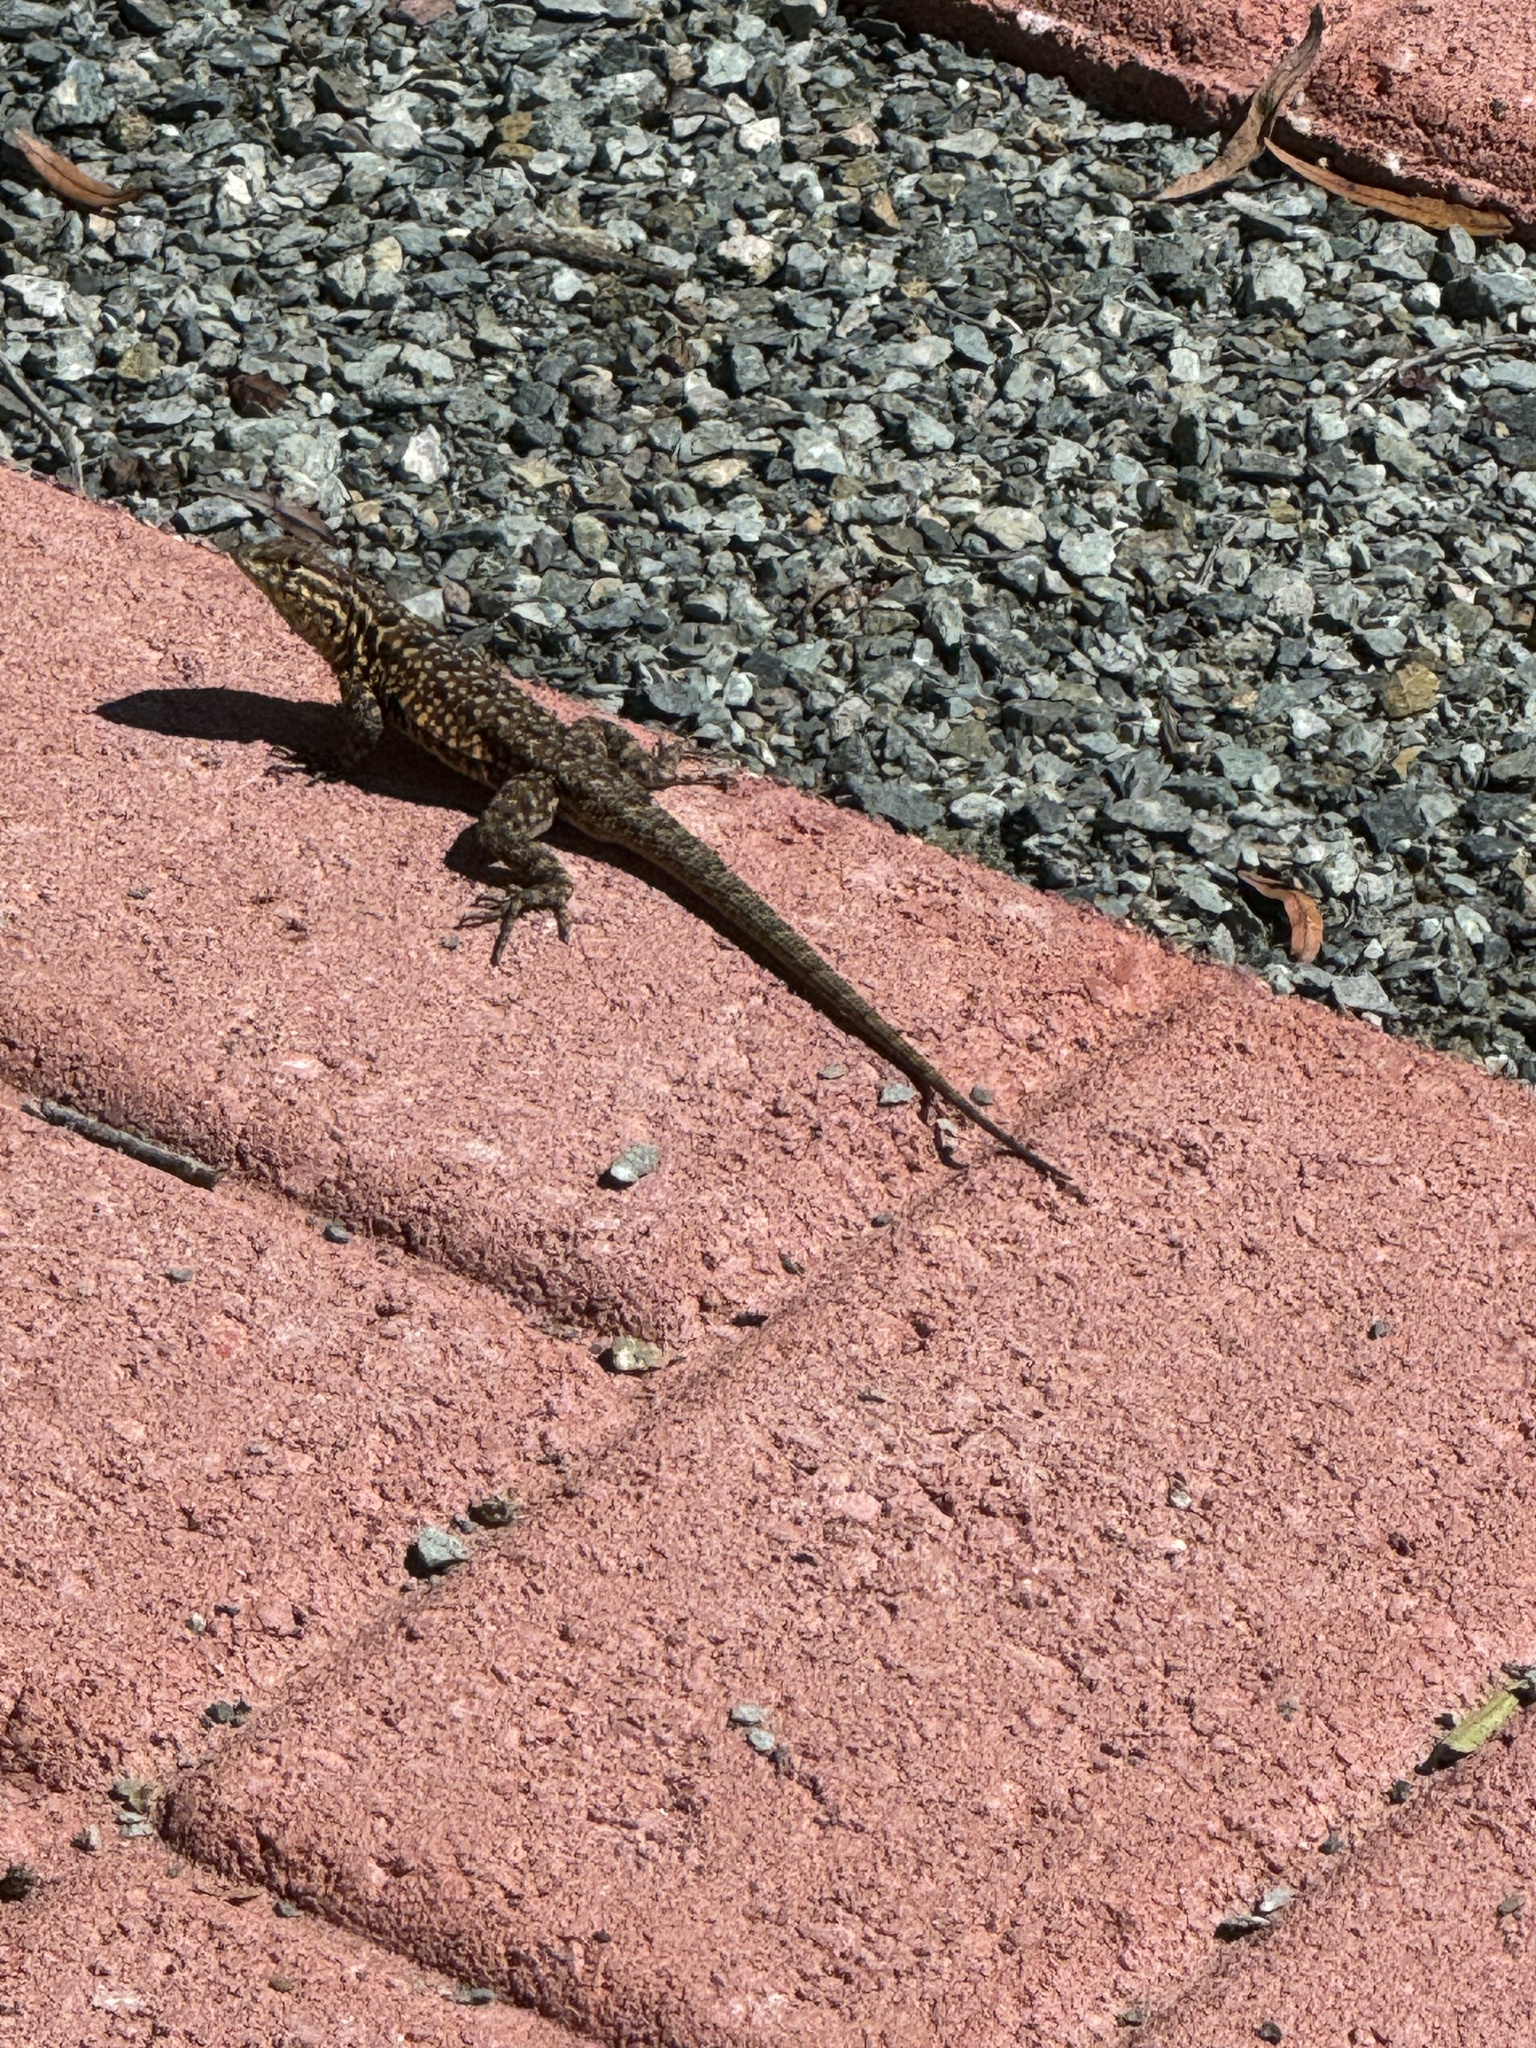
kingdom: Animalia
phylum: Chordata
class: Squamata
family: Phrynosomatidae
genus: Uta
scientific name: Uta stansburiana
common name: Side-blotched lizard
